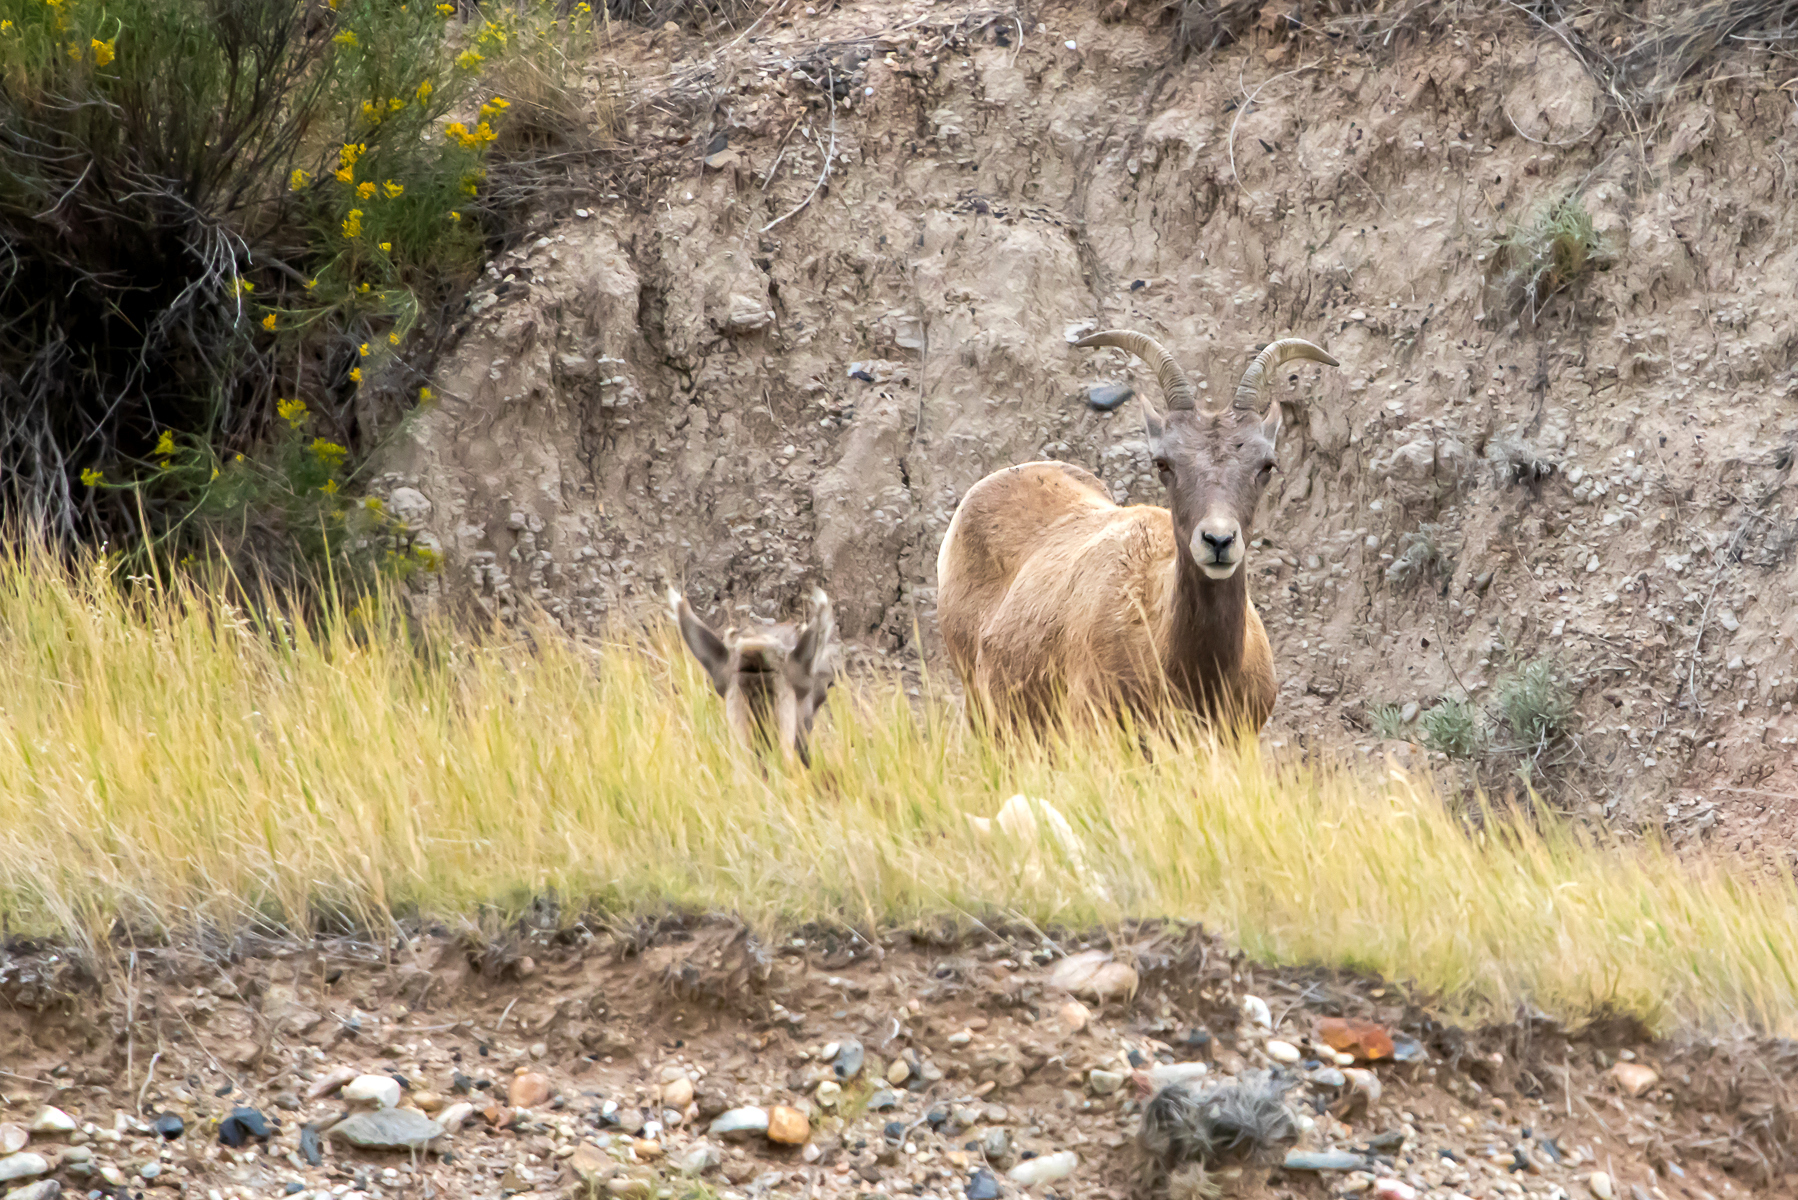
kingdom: Animalia
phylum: Chordata
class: Mammalia
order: Artiodactyla
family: Bovidae
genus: Ovis
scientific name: Ovis canadensis
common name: Bighorn sheep
